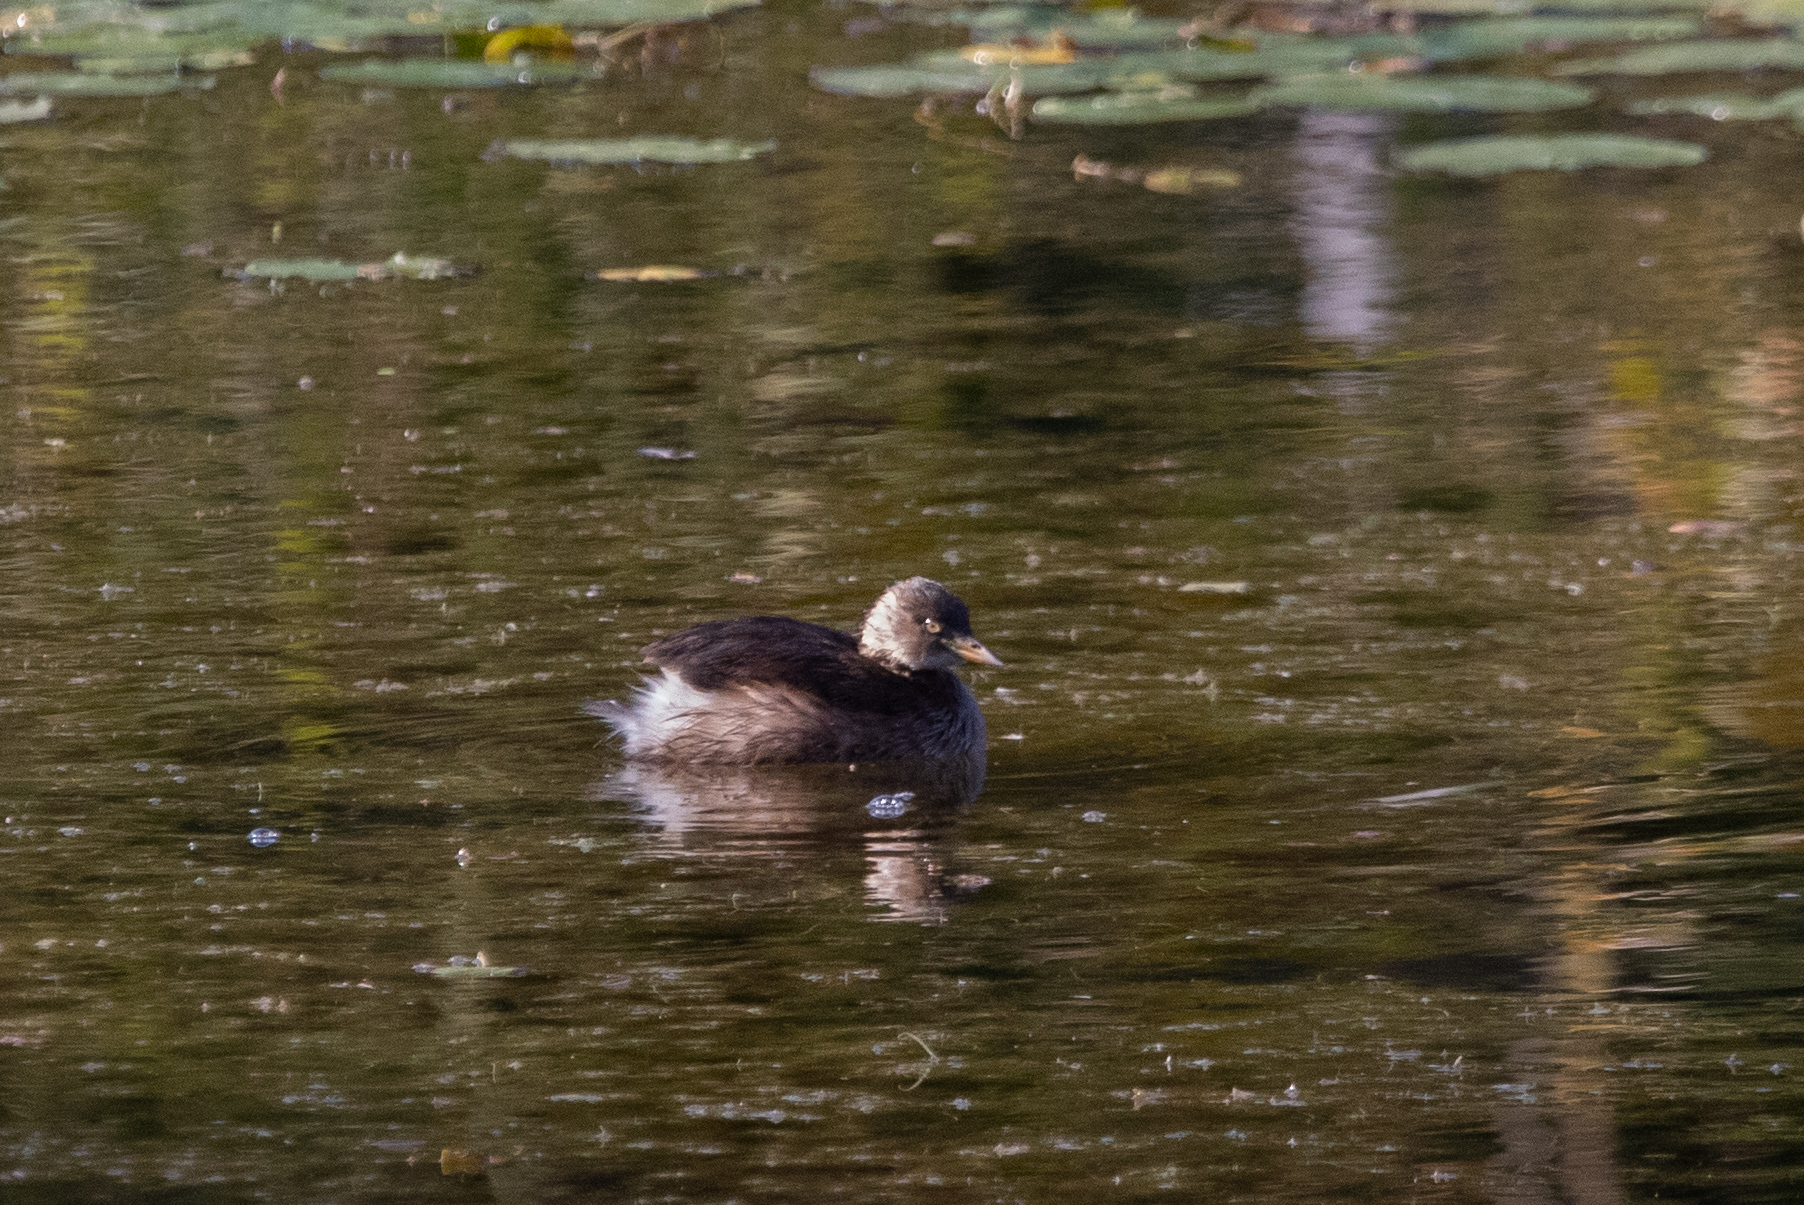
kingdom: Animalia
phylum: Chordata
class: Aves
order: Podicipediformes
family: Podicipedidae
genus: Tachybaptus
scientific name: Tachybaptus ruficollis
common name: Little grebe
